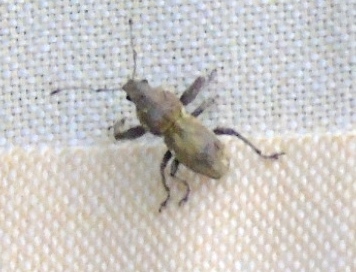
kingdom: Animalia
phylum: Arthropoda
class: Insecta
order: Coleoptera
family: Curculionidae
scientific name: Curculionidae
